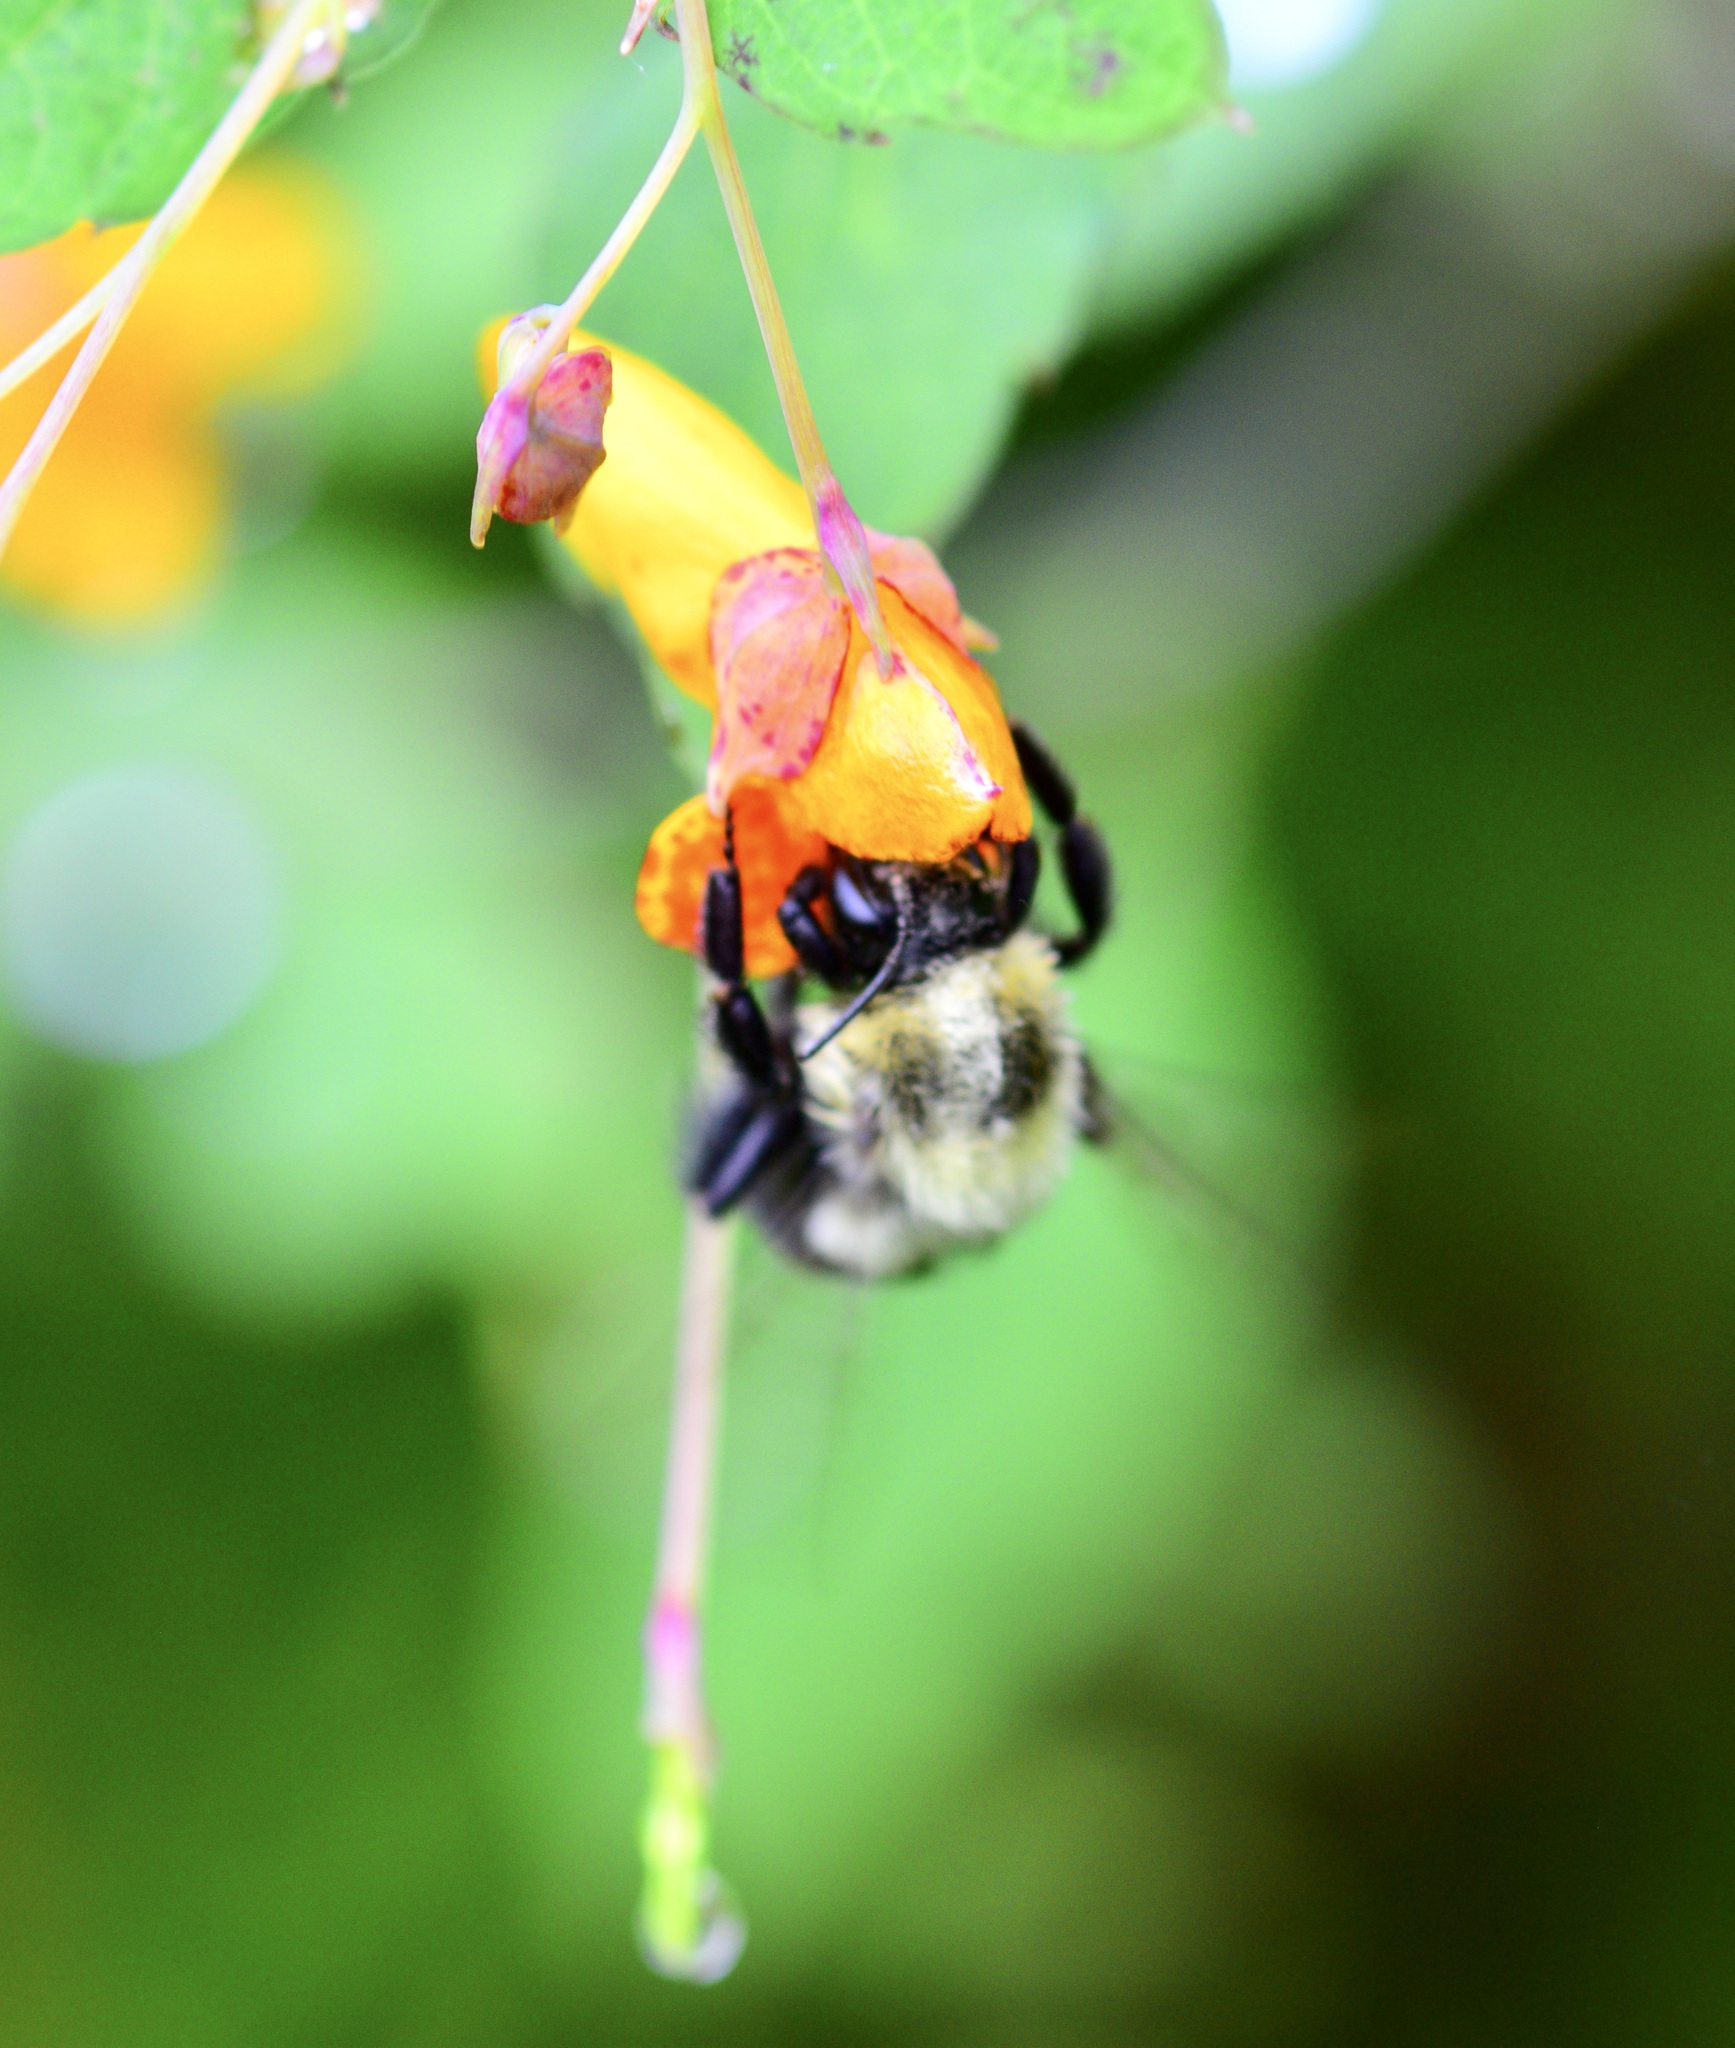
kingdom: Animalia
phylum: Arthropoda
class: Insecta
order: Hymenoptera
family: Apidae
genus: Bombus
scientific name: Bombus impatiens
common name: Common eastern bumble bee
